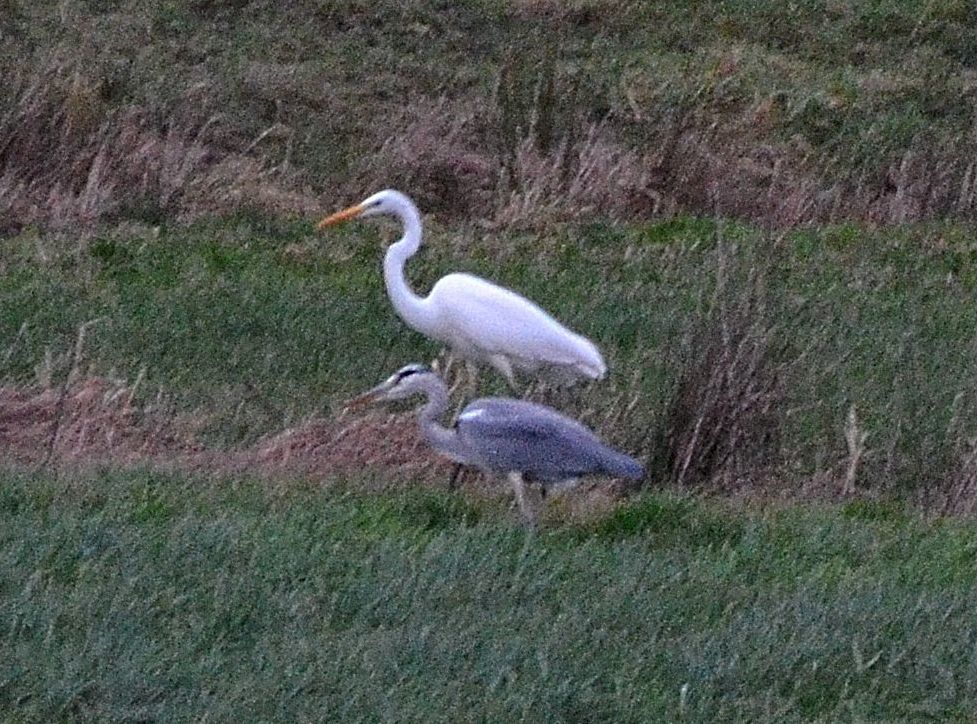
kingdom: Animalia
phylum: Chordata
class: Aves
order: Pelecaniformes
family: Ardeidae
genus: Ardea
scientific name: Ardea cinerea
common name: Grey heron
